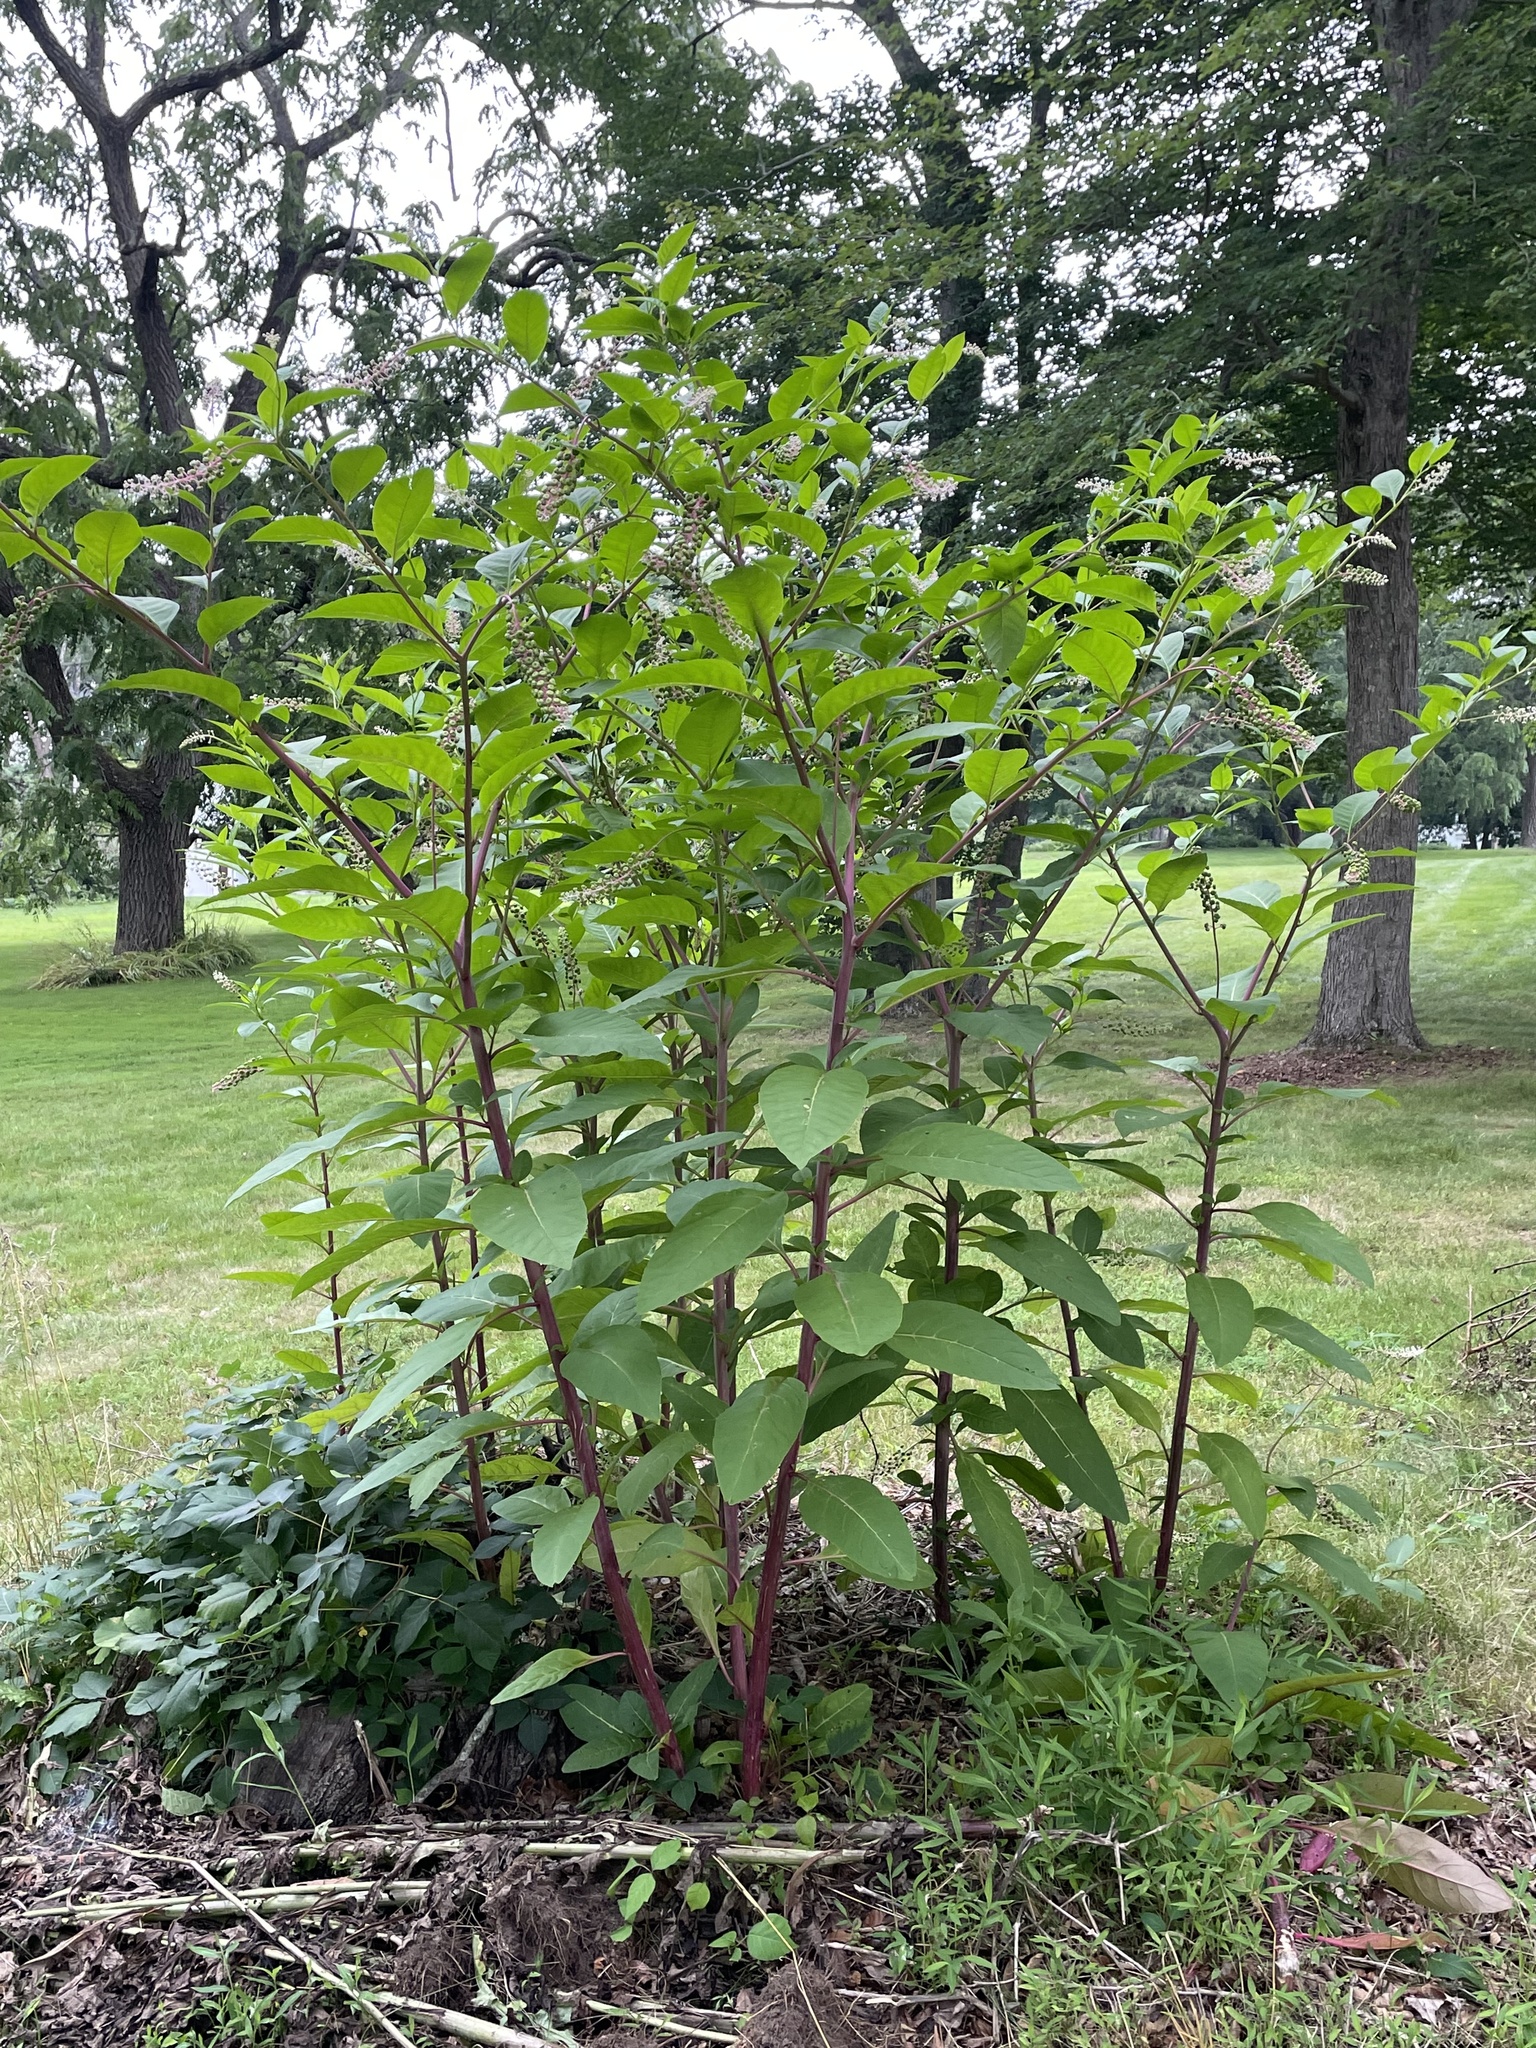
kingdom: Plantae
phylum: Tracheophyta
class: Magnoliopsida
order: Caryophyllales
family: Phytolaccaceae
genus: Phytolacca
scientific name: Phytolacca americana
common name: American pokeweed
